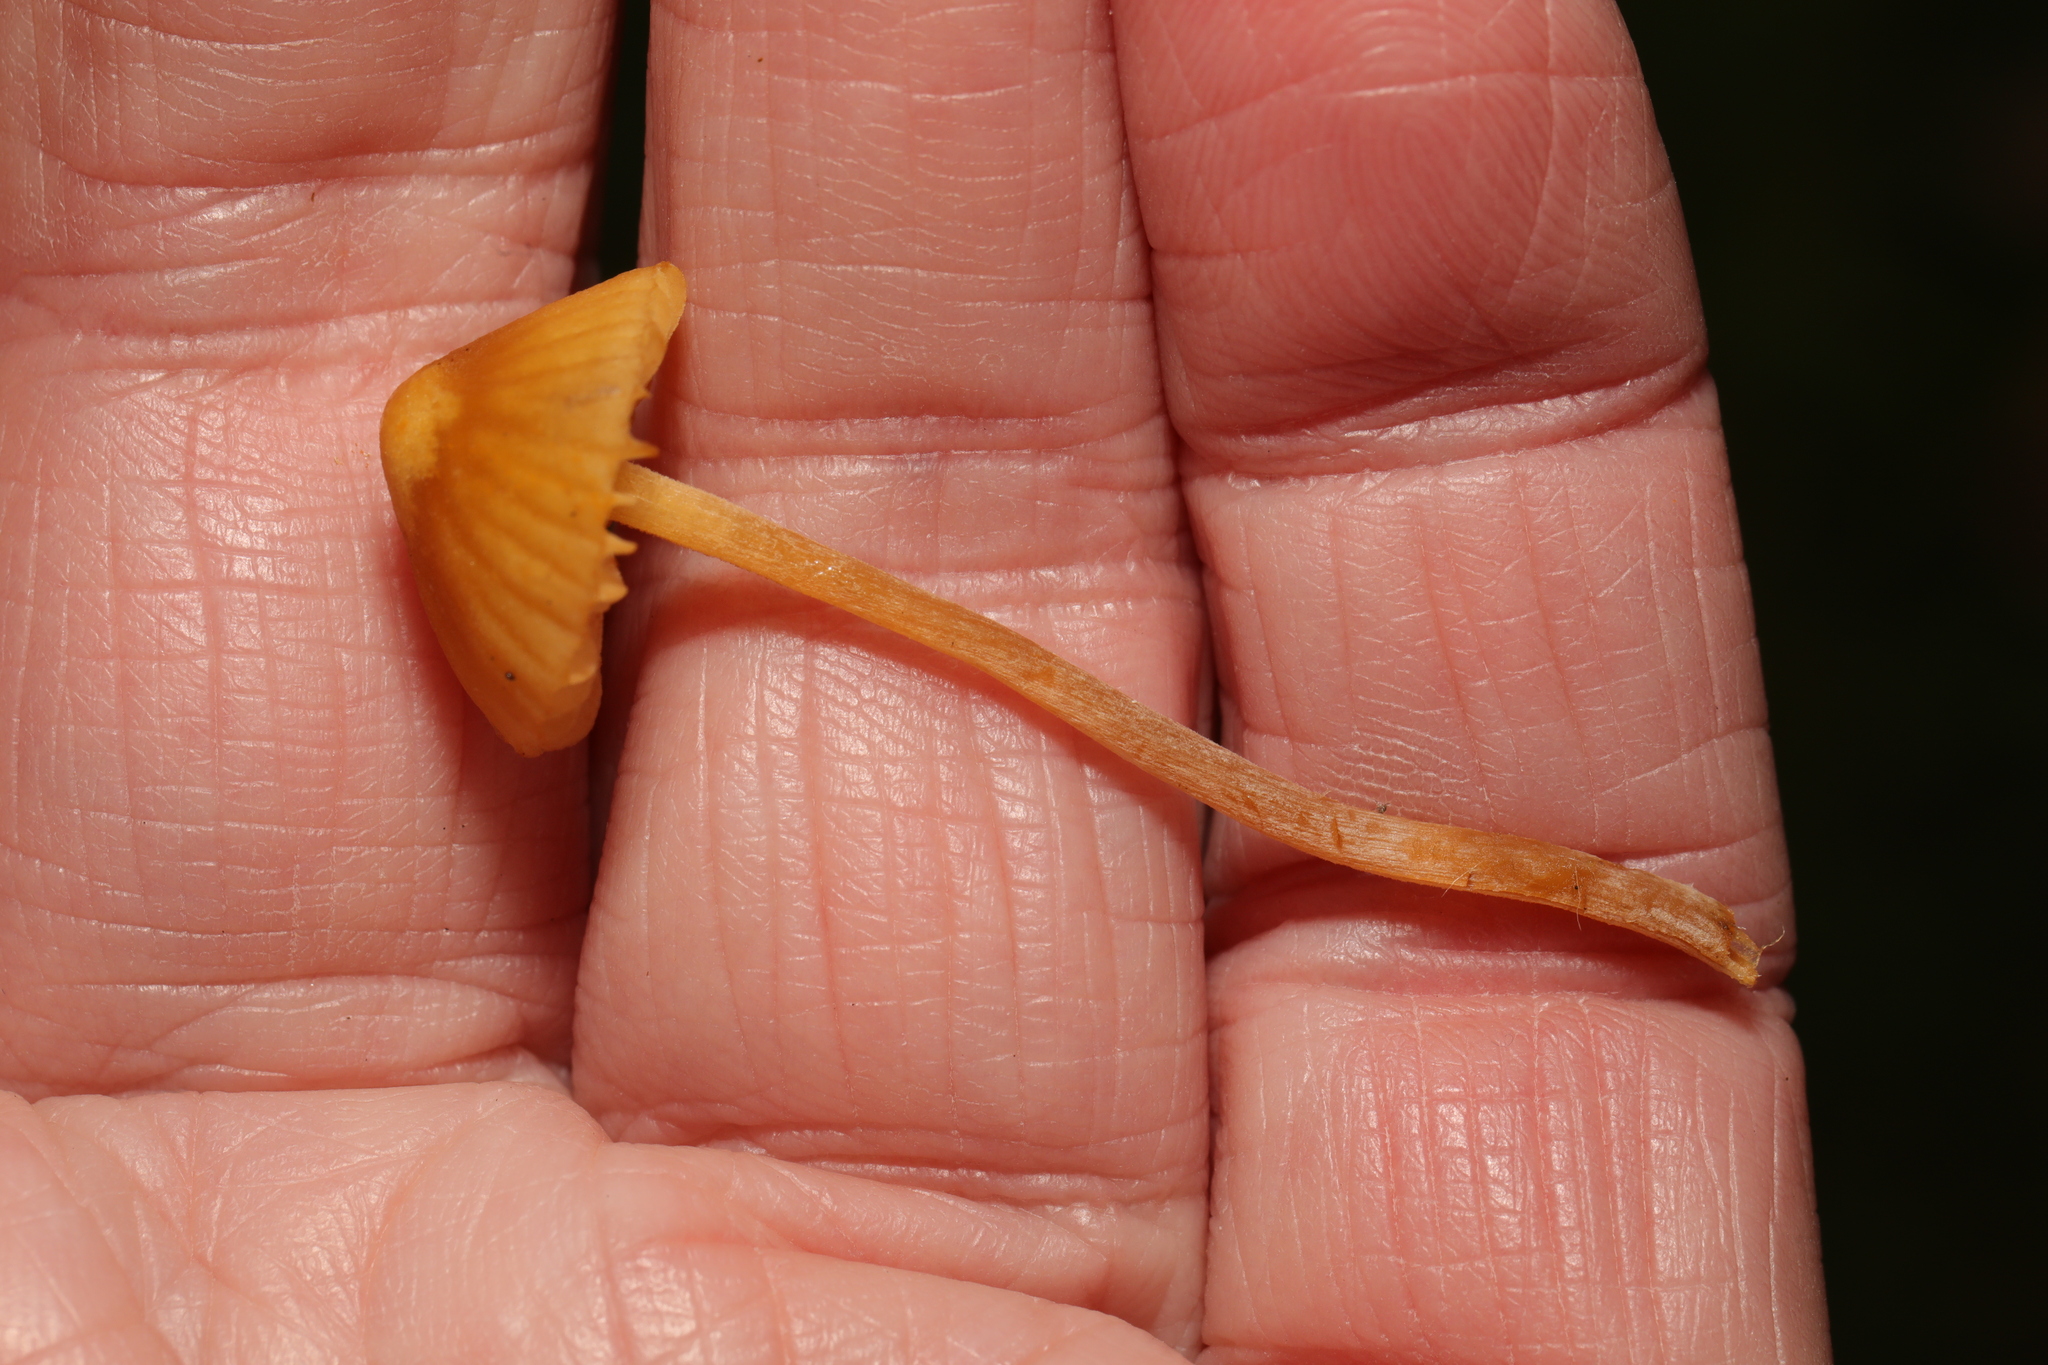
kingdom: Fungi
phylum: Basidiomycota
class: Agaricomycetes
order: Agaricales
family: Hymenogastraceae
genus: Galerina
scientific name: Galerina
